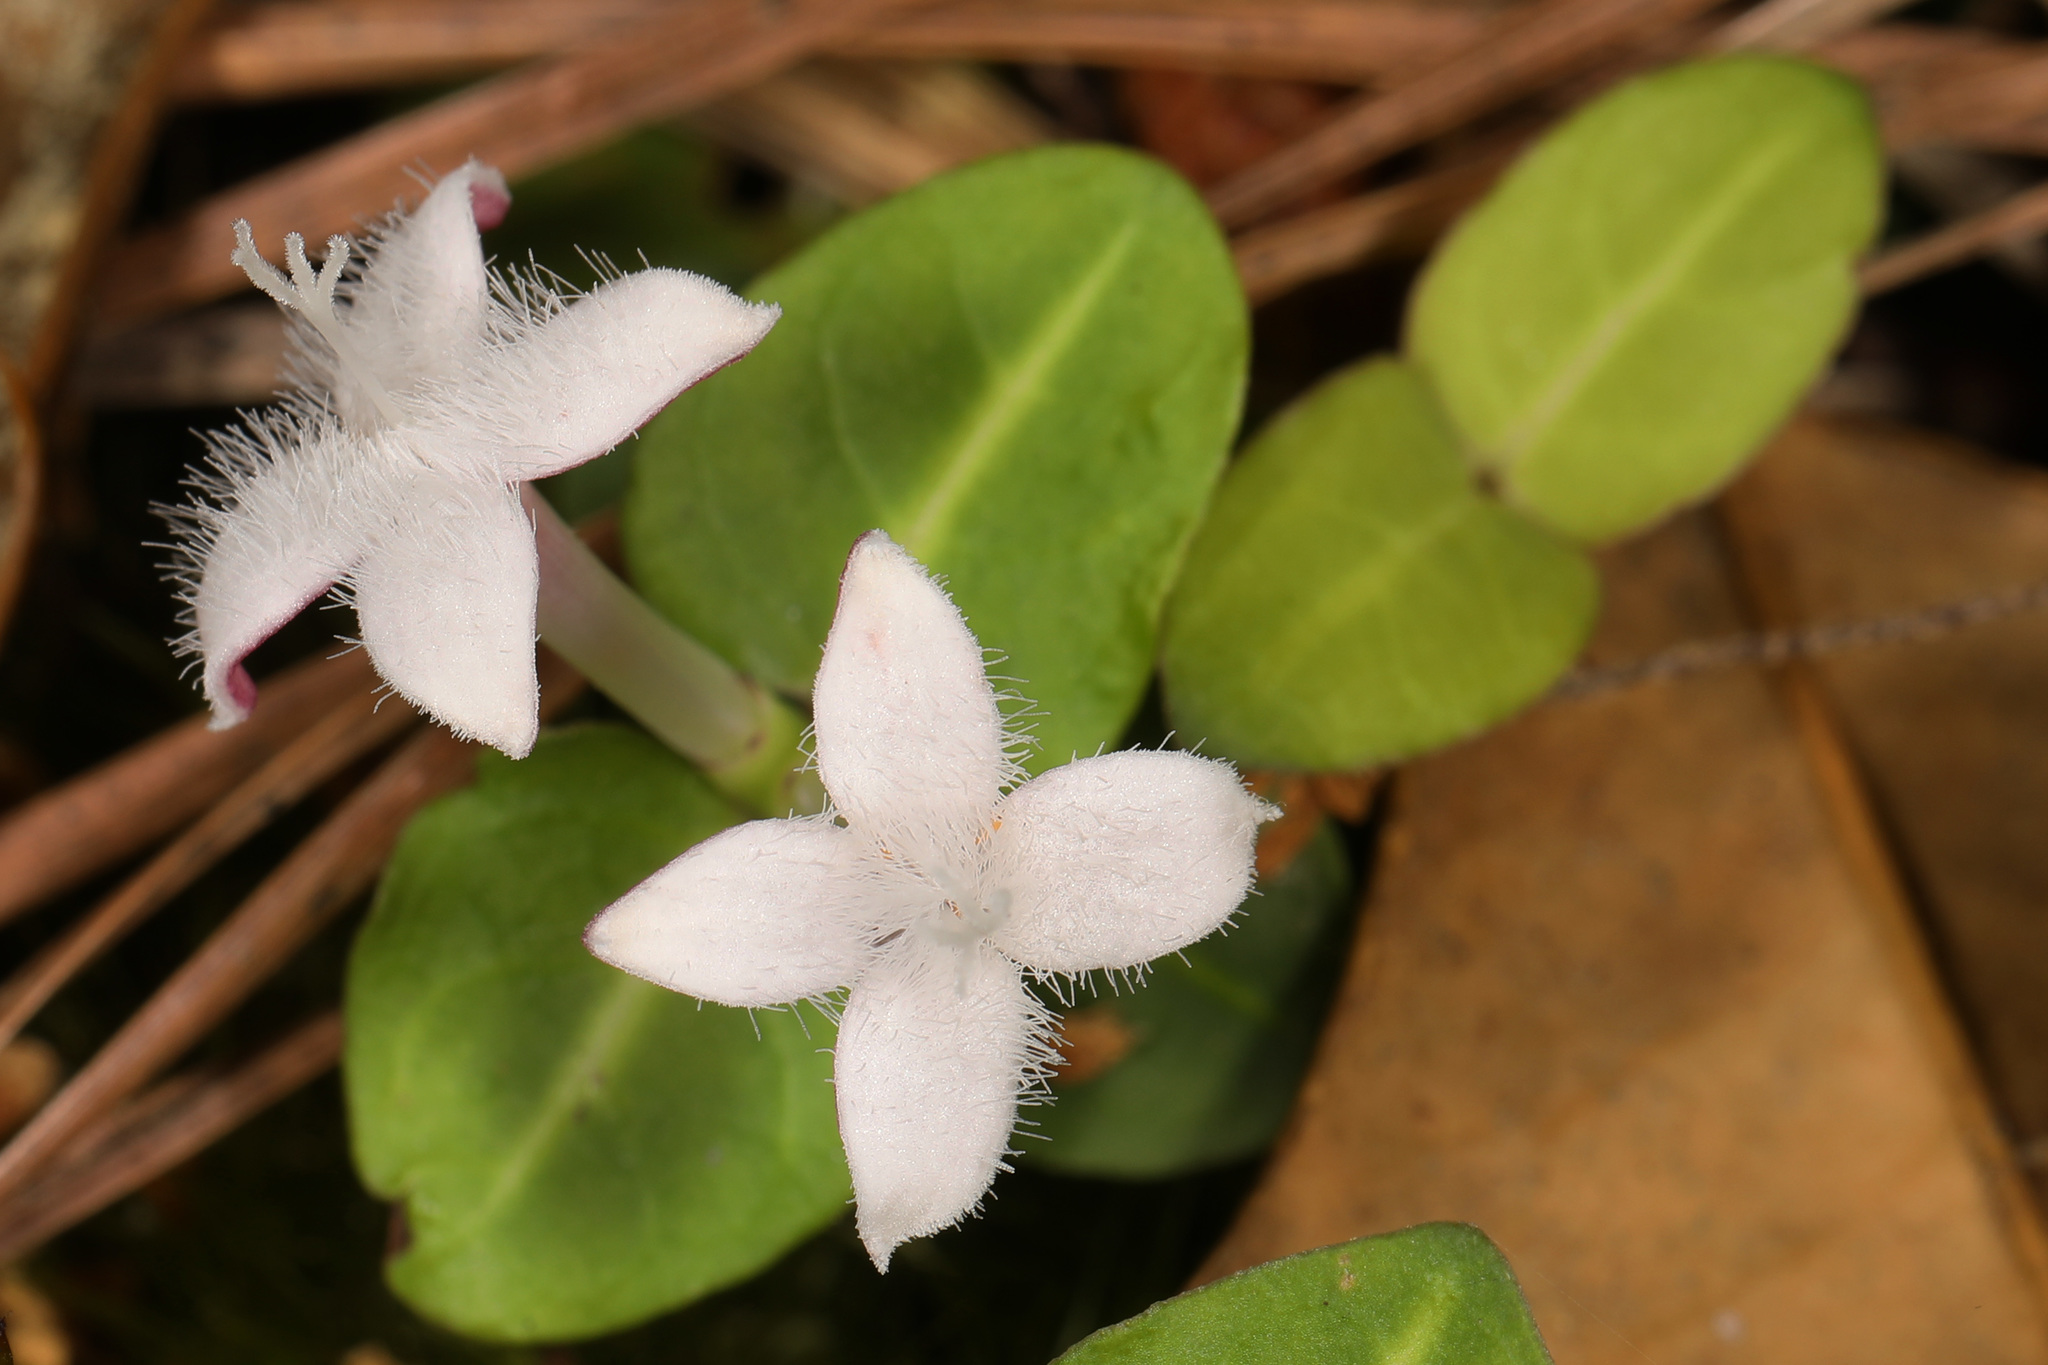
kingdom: Plantae
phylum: Tracheophyta
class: Magnoliopsida
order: Gentianales
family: Rubiaceae
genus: Mitchella
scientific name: Mitchella repens
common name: Partridge-berry
